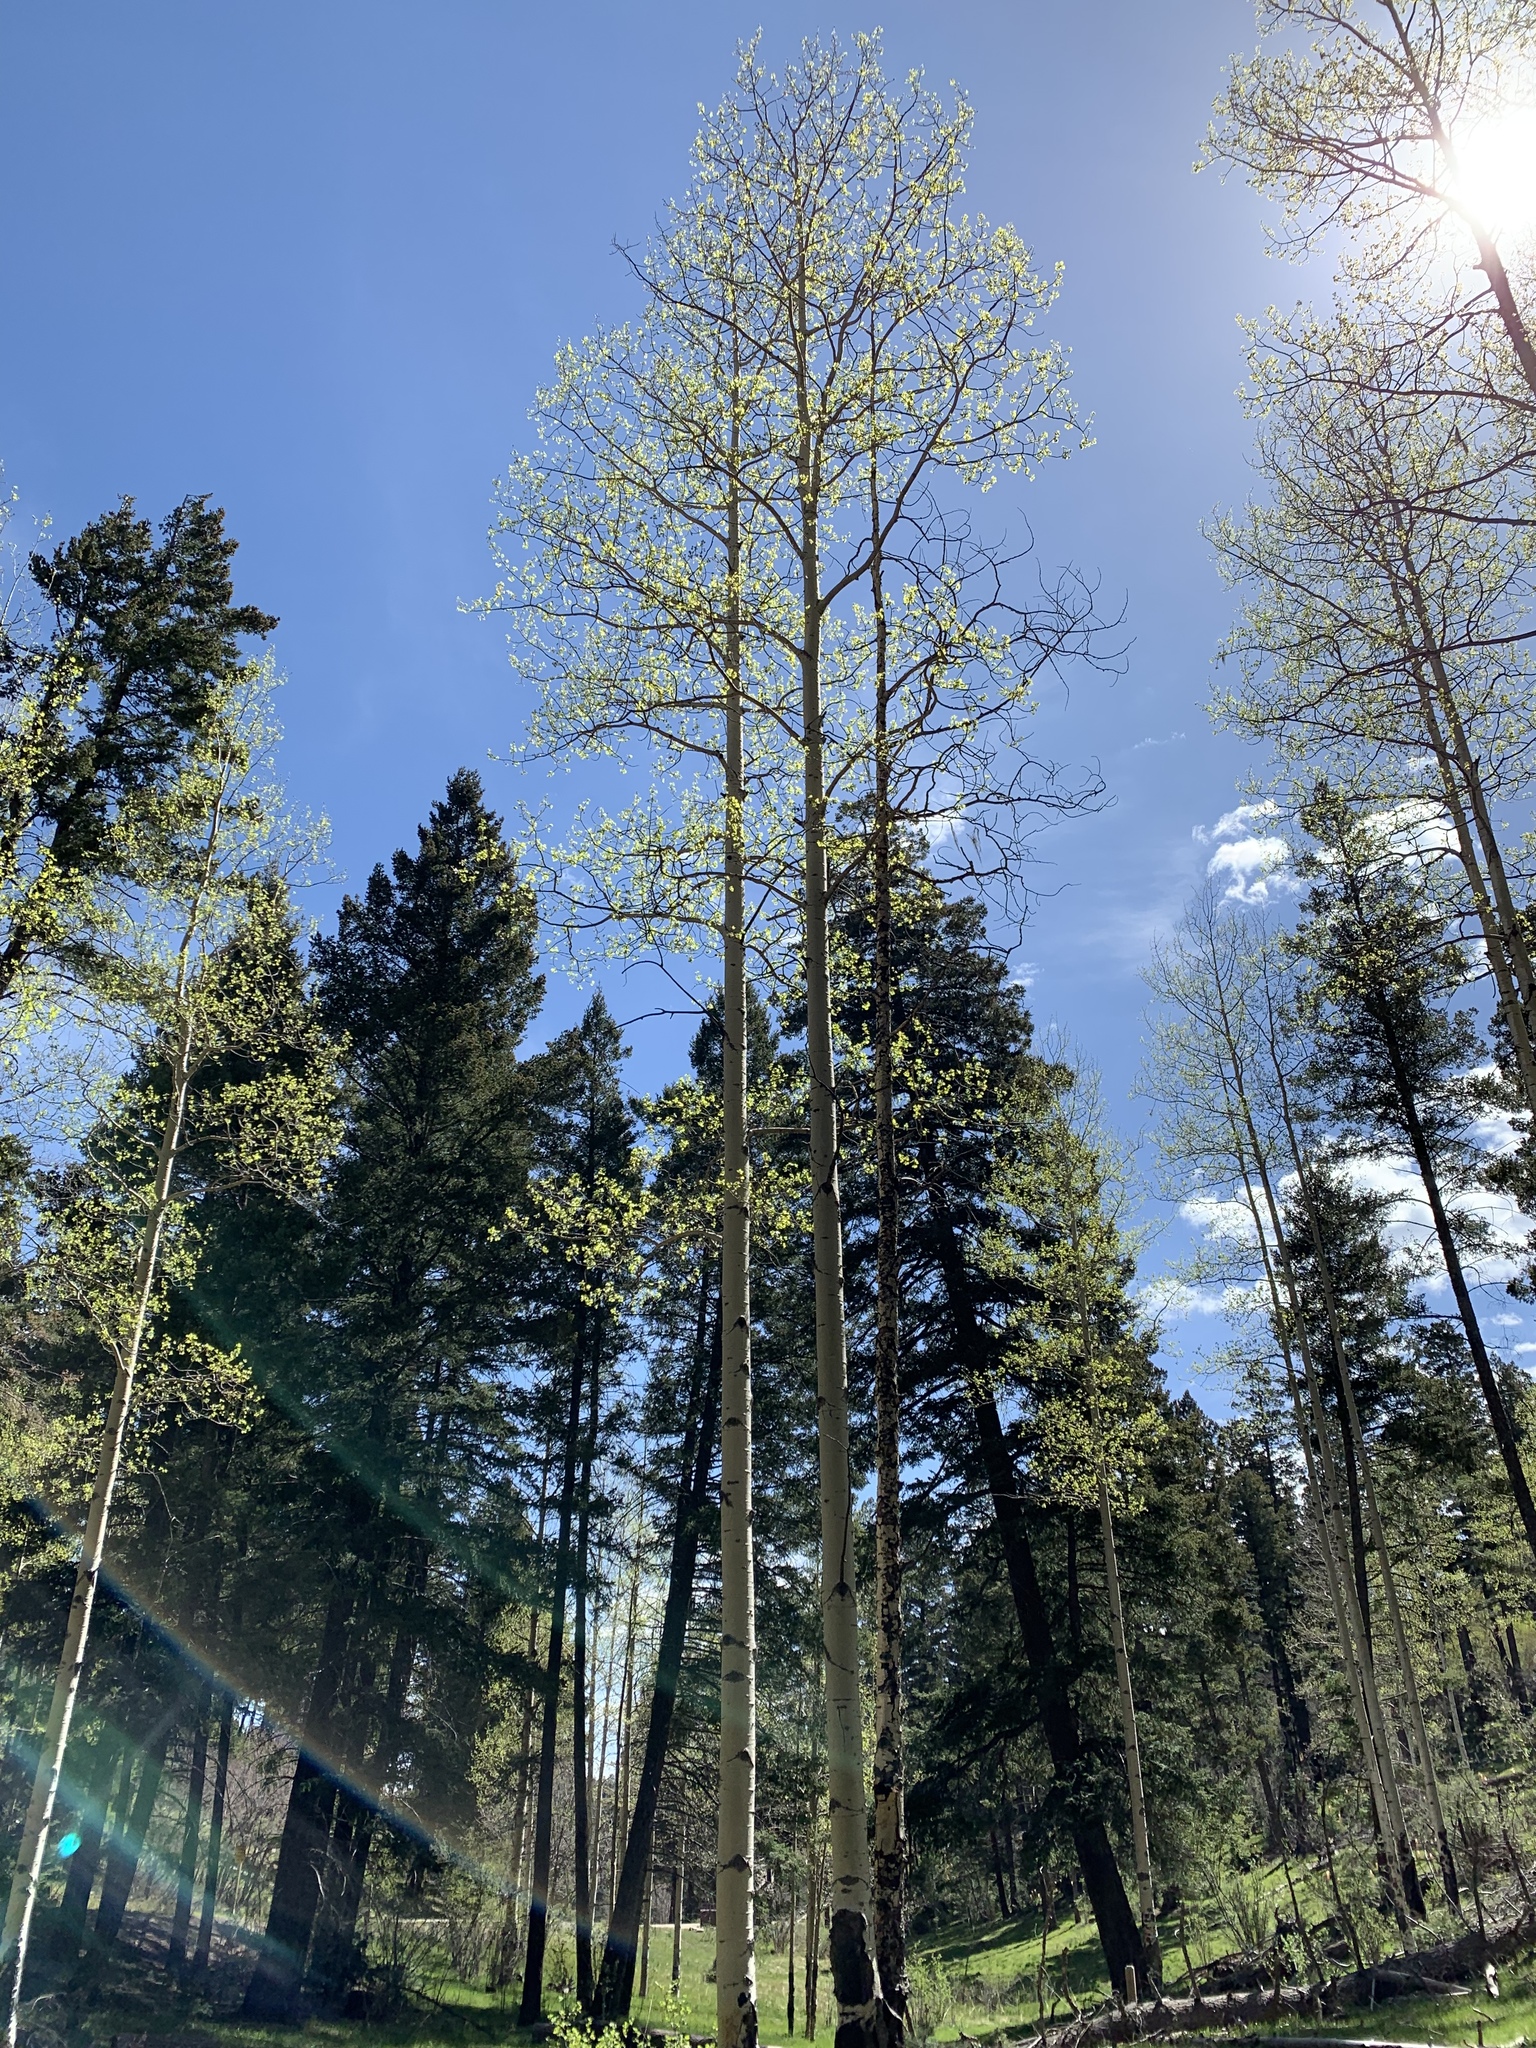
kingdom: Plantae
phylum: Tracheophyta
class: Magnoliopsida
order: Malpighiales
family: Salicaceae
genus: Populus
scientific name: Populus tremuloides
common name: Quaking aspen
